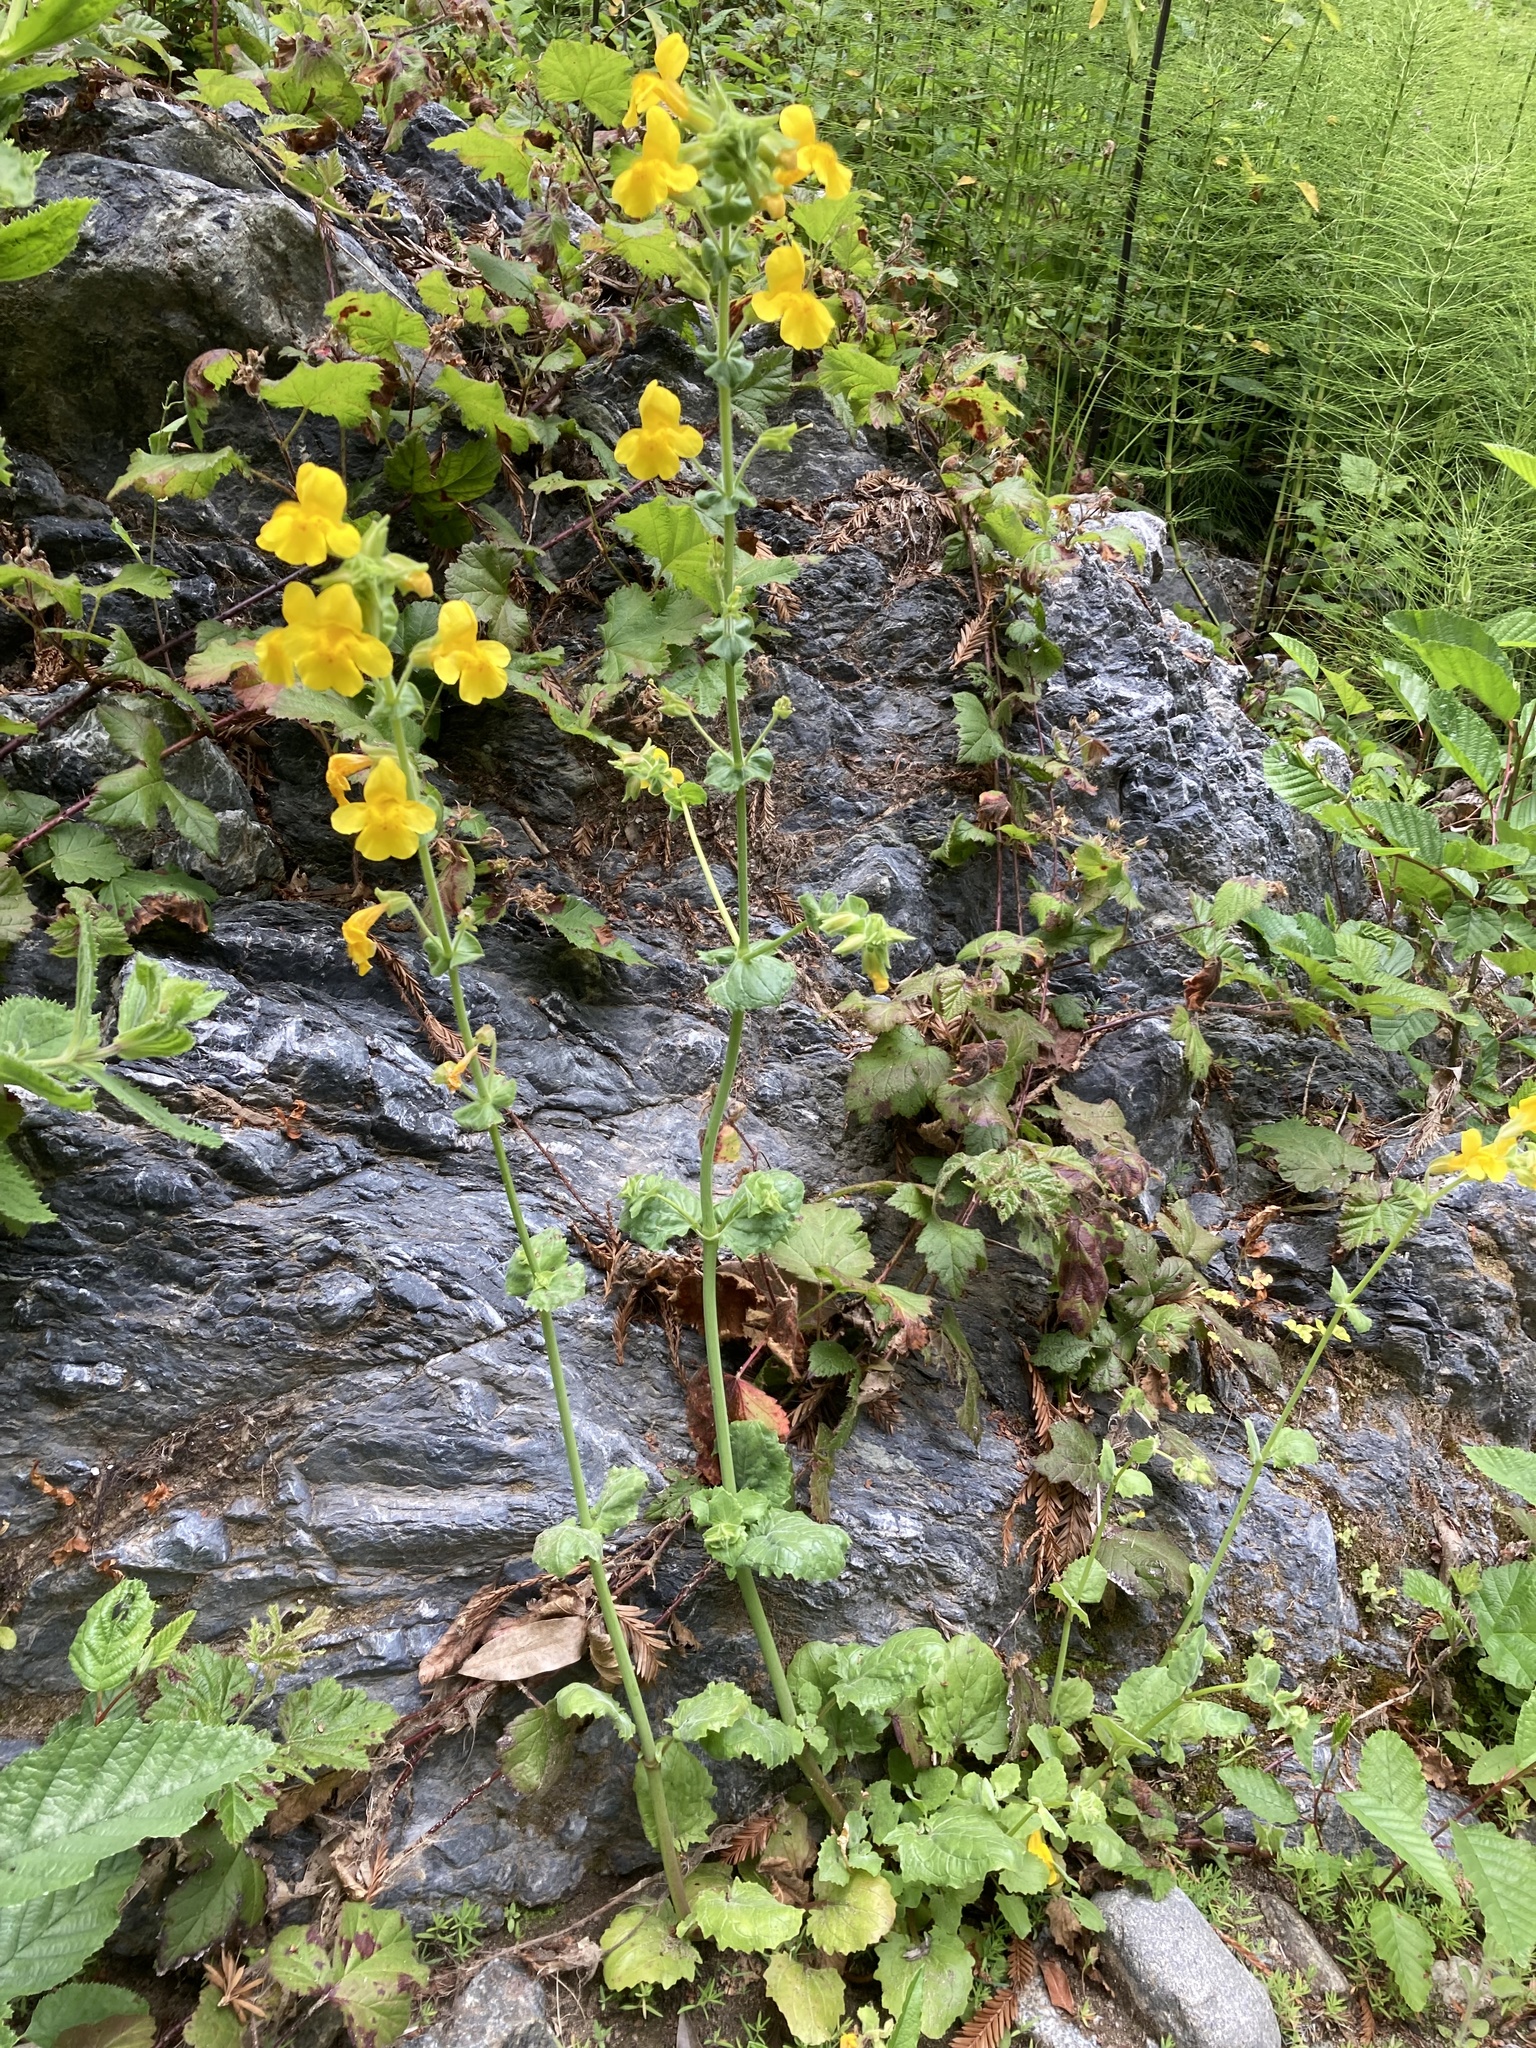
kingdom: Plantae
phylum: Tracheophyta
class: Magnoliopsida
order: Lamiales
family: Phrymaceae
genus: Erythranthe
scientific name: Erythranthe guttata
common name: Monkeyflower
